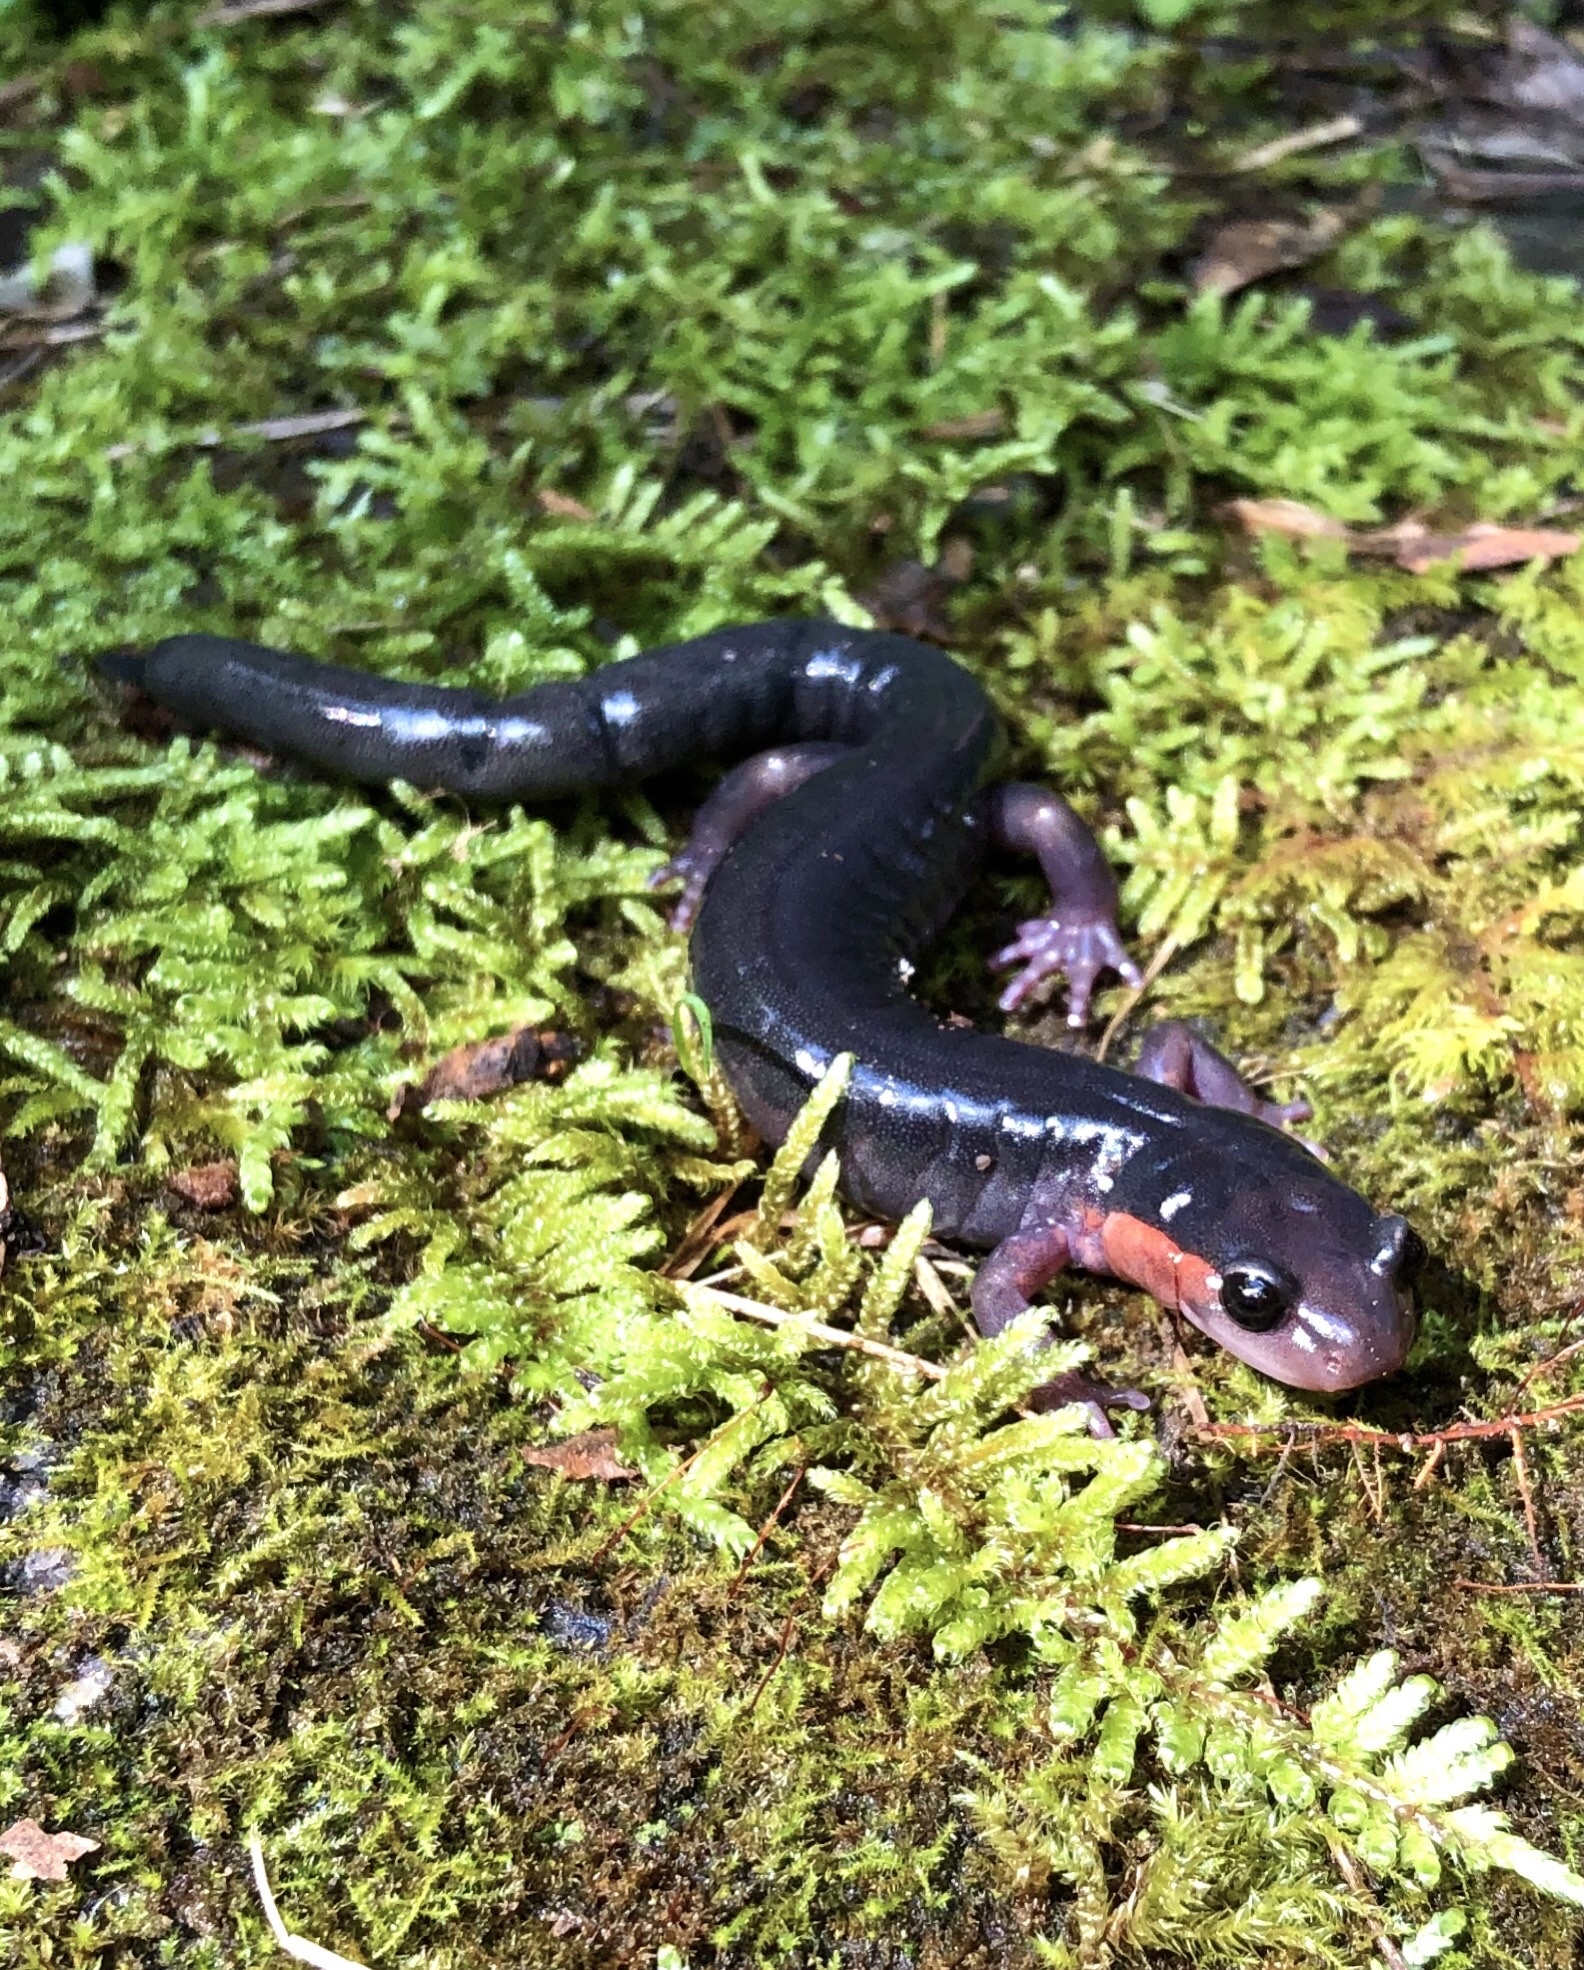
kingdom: Animalia
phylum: Chordata
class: Amphibia
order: Caudata
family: Plethodontidae
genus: Plethodon
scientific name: Plethodon jordani
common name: Red-cheeked salamander
